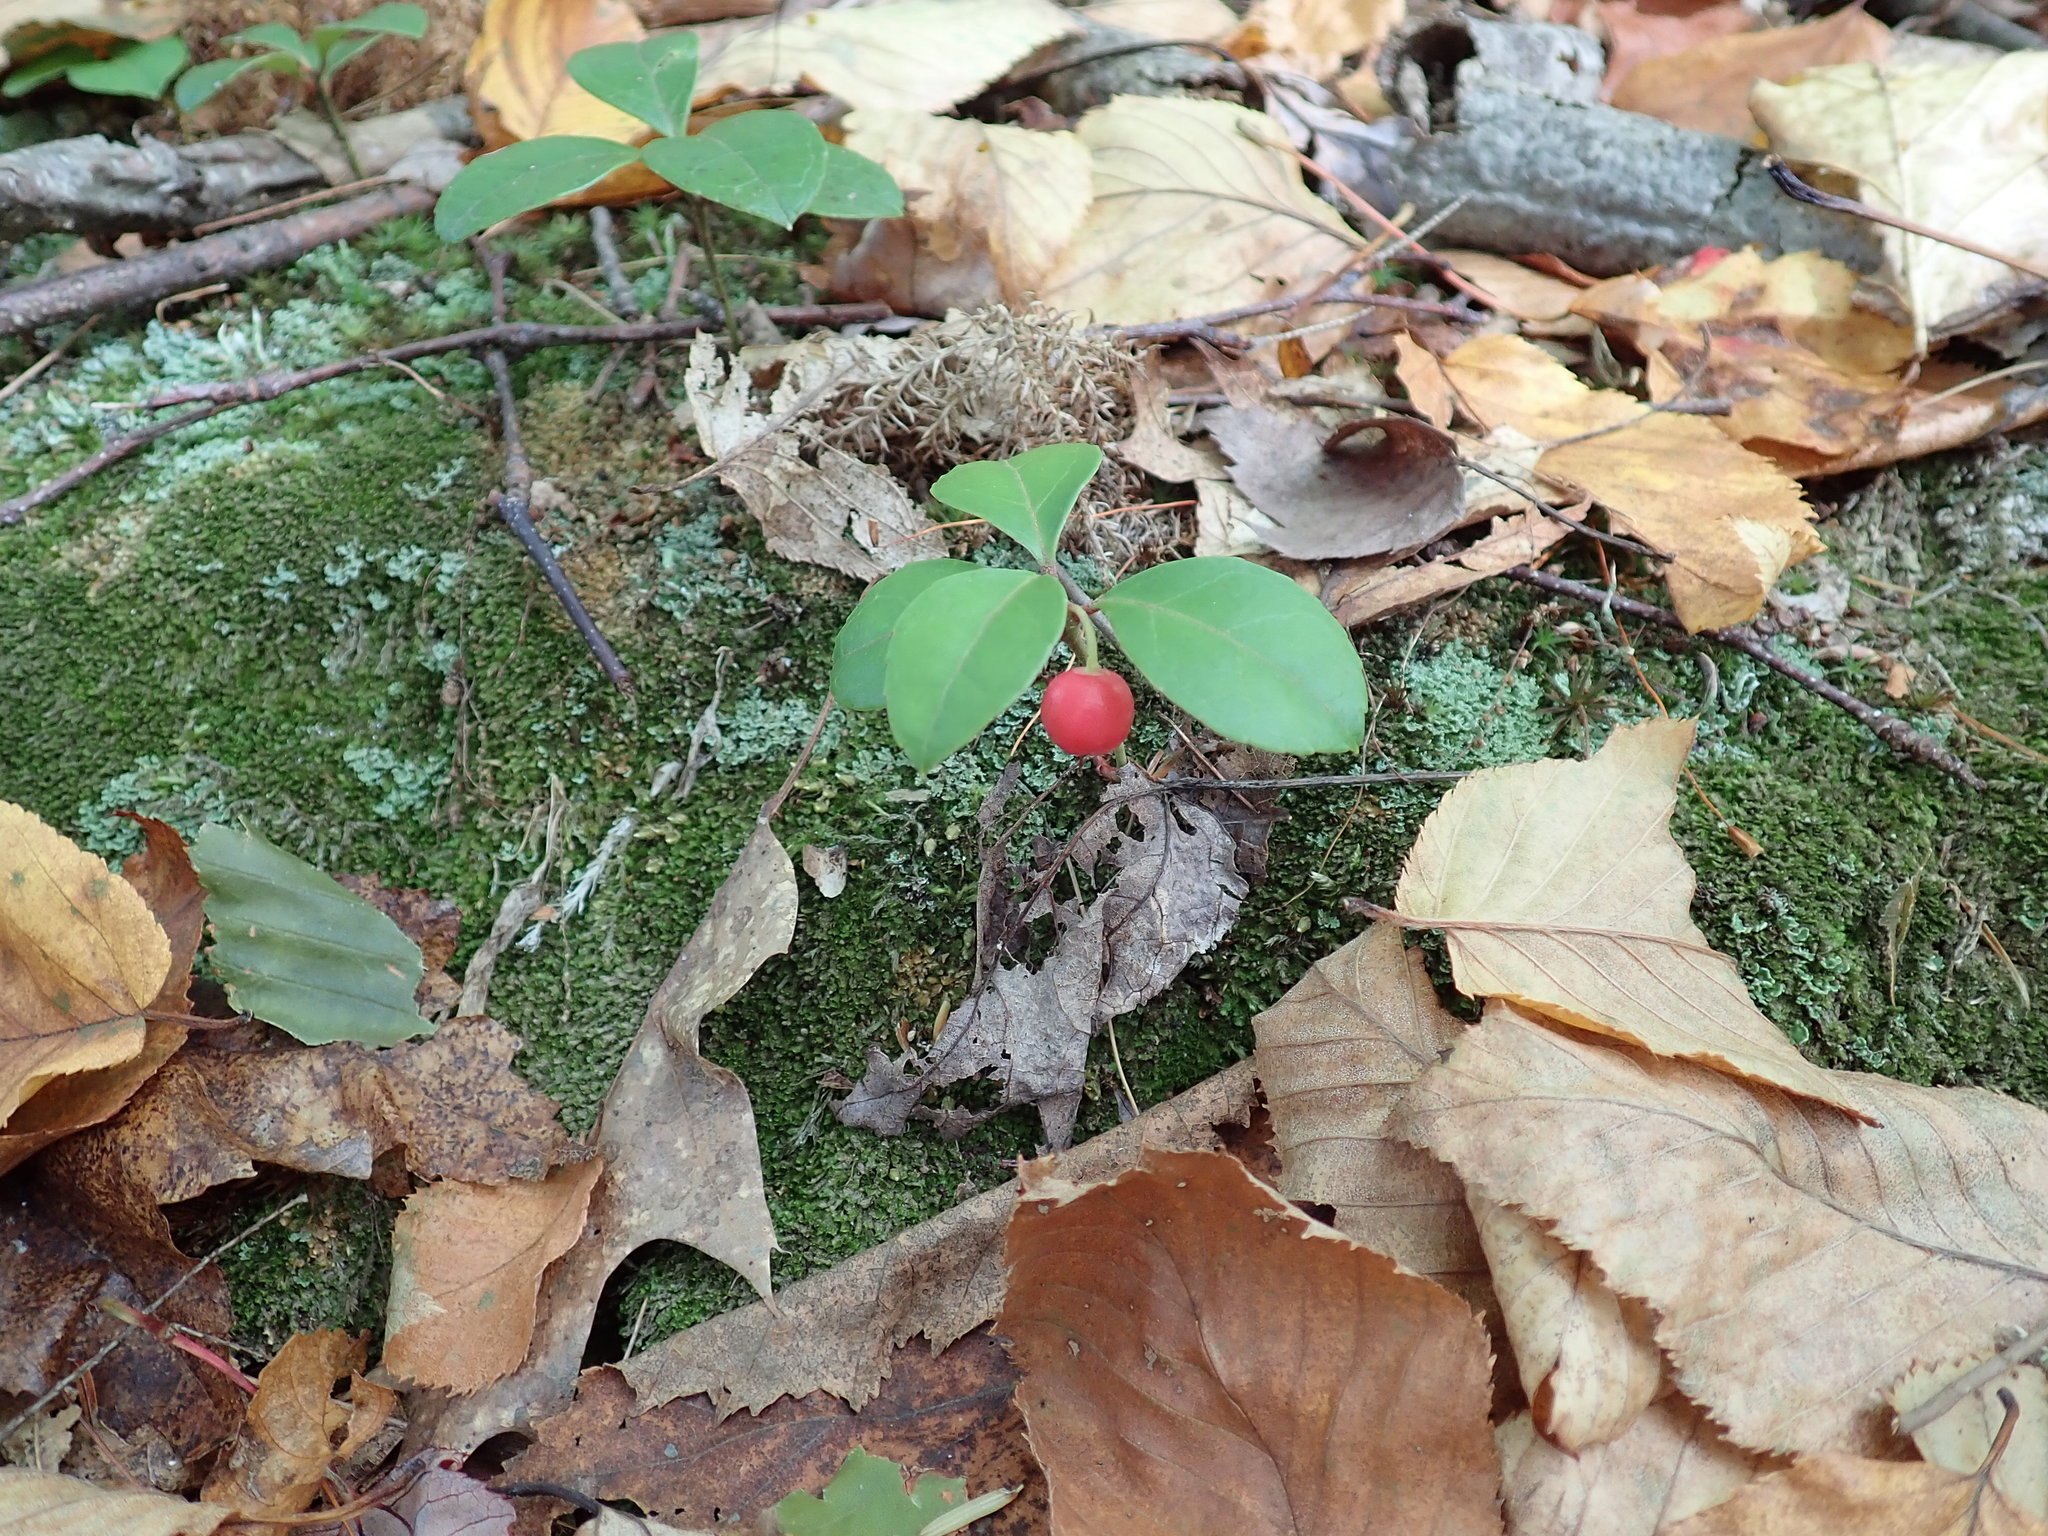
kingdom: Plantae
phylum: Tracheophyta
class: Magnoliopsida
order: Ericales
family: Ericaceae
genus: Gaultheria
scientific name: Gaultheria procumbens
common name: Checkerberry
